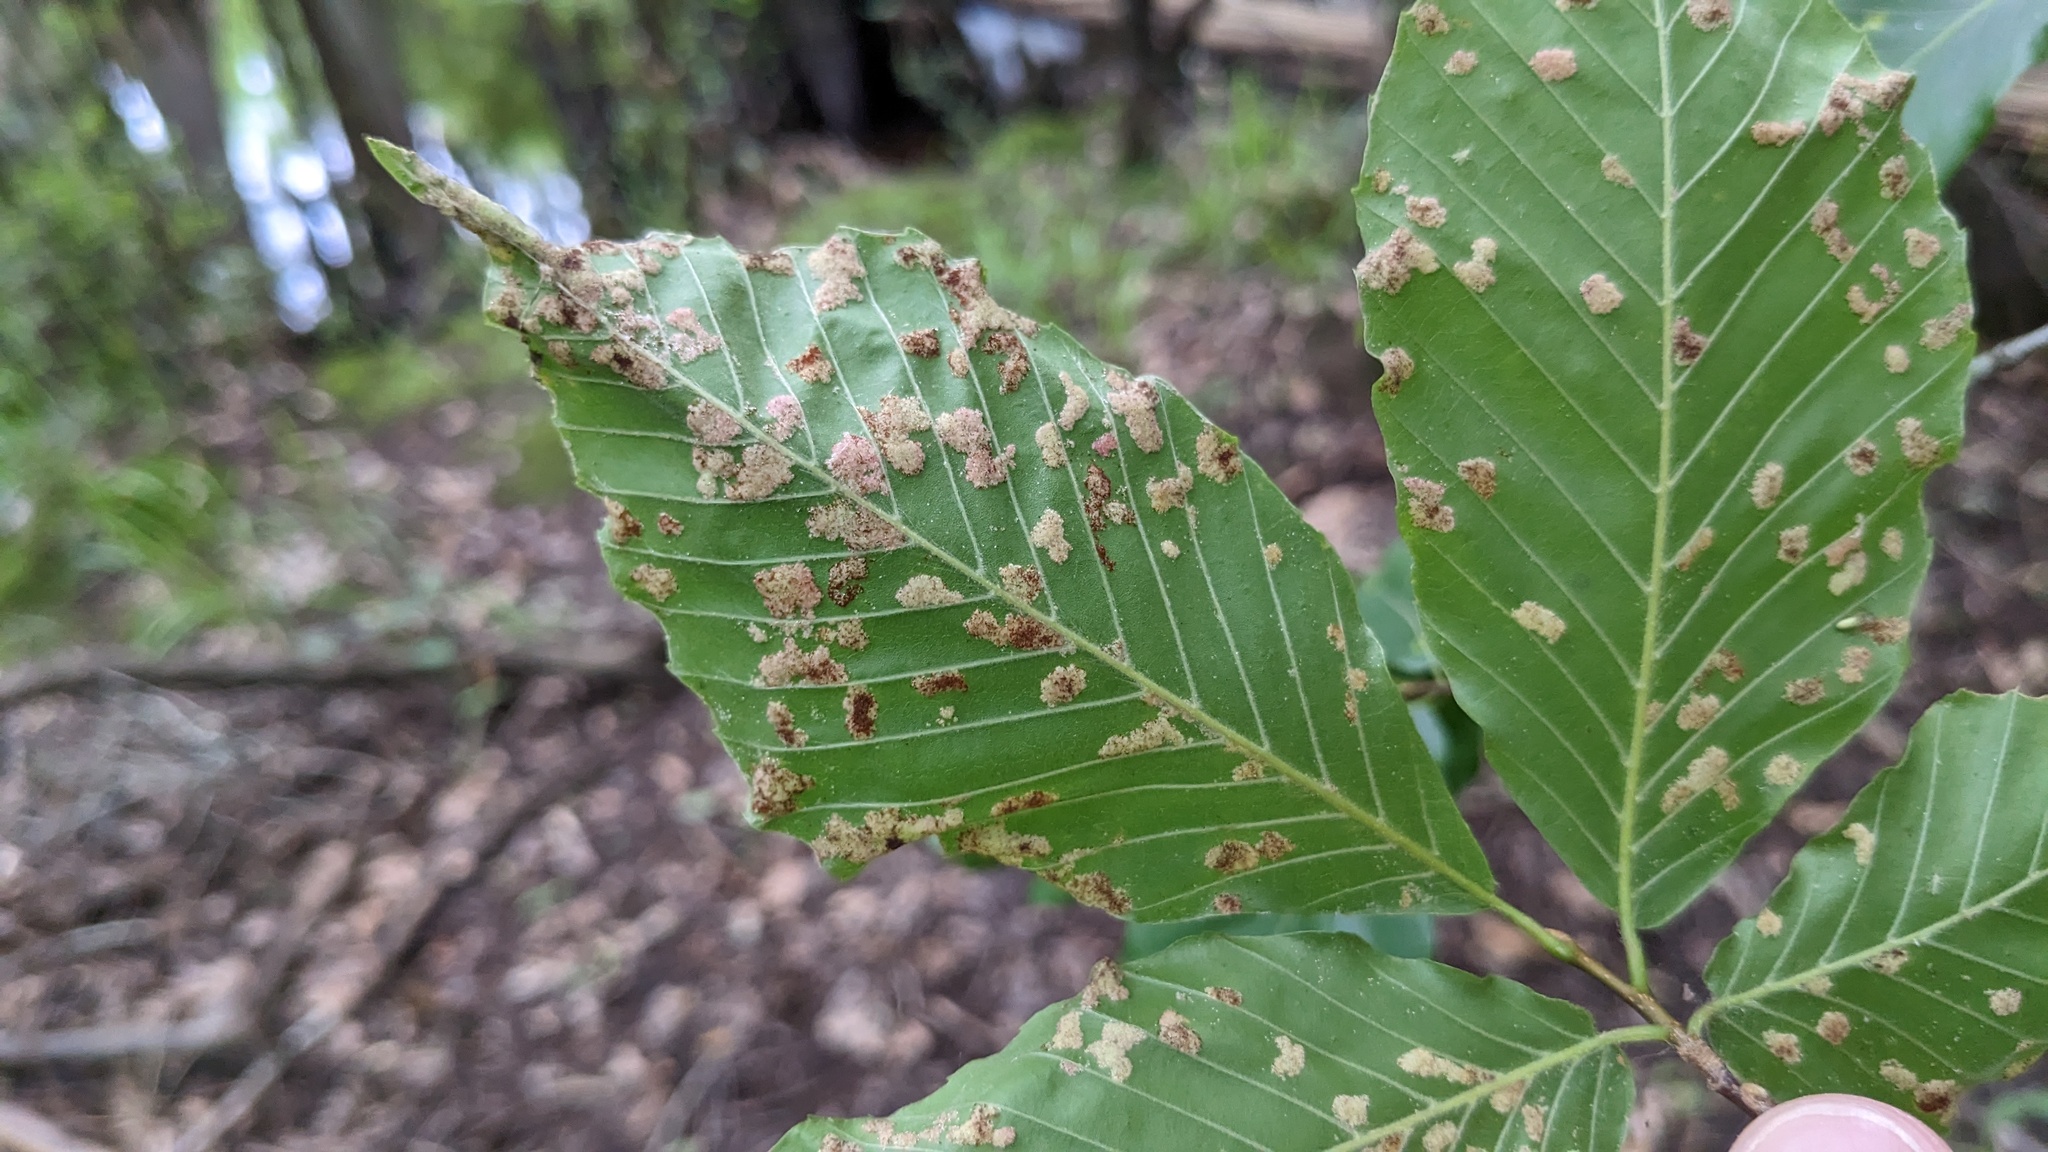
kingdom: Animalia
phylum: Arthropoda
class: Arachnida
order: Trombidiformes
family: Eriophyidae
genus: Acalitus
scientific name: Acalitus
